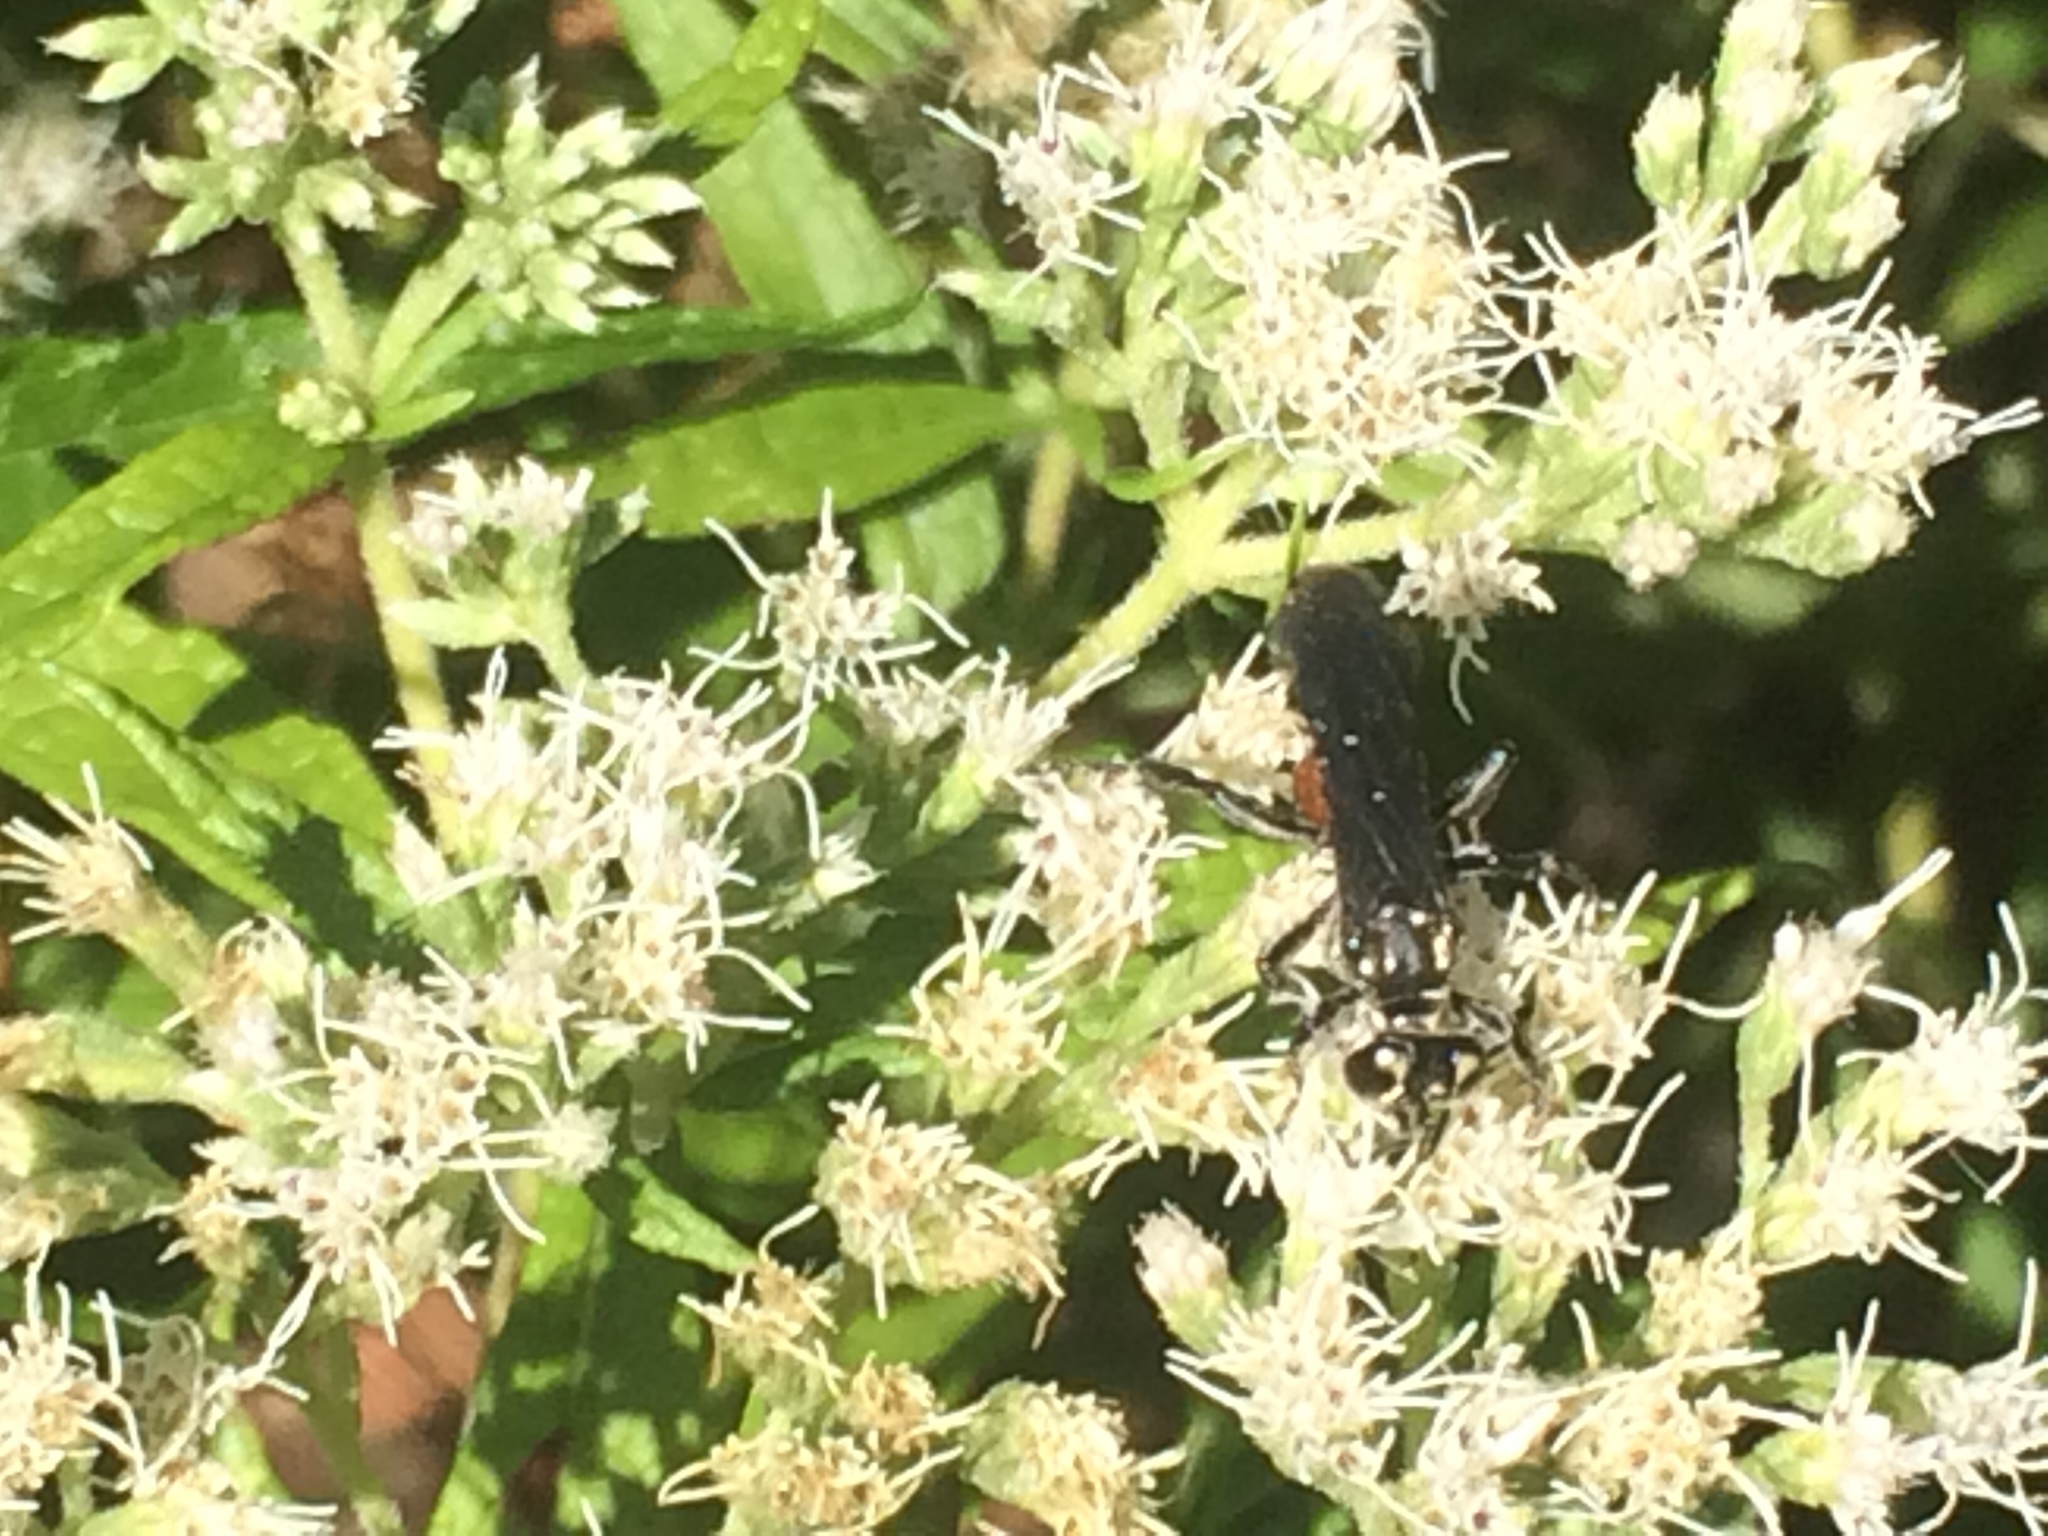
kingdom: Animalia
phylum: Arthropoda
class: Insecta
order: Hymenoptera
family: Crabronidae
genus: Larra
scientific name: Larra bicolor
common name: Wasp
